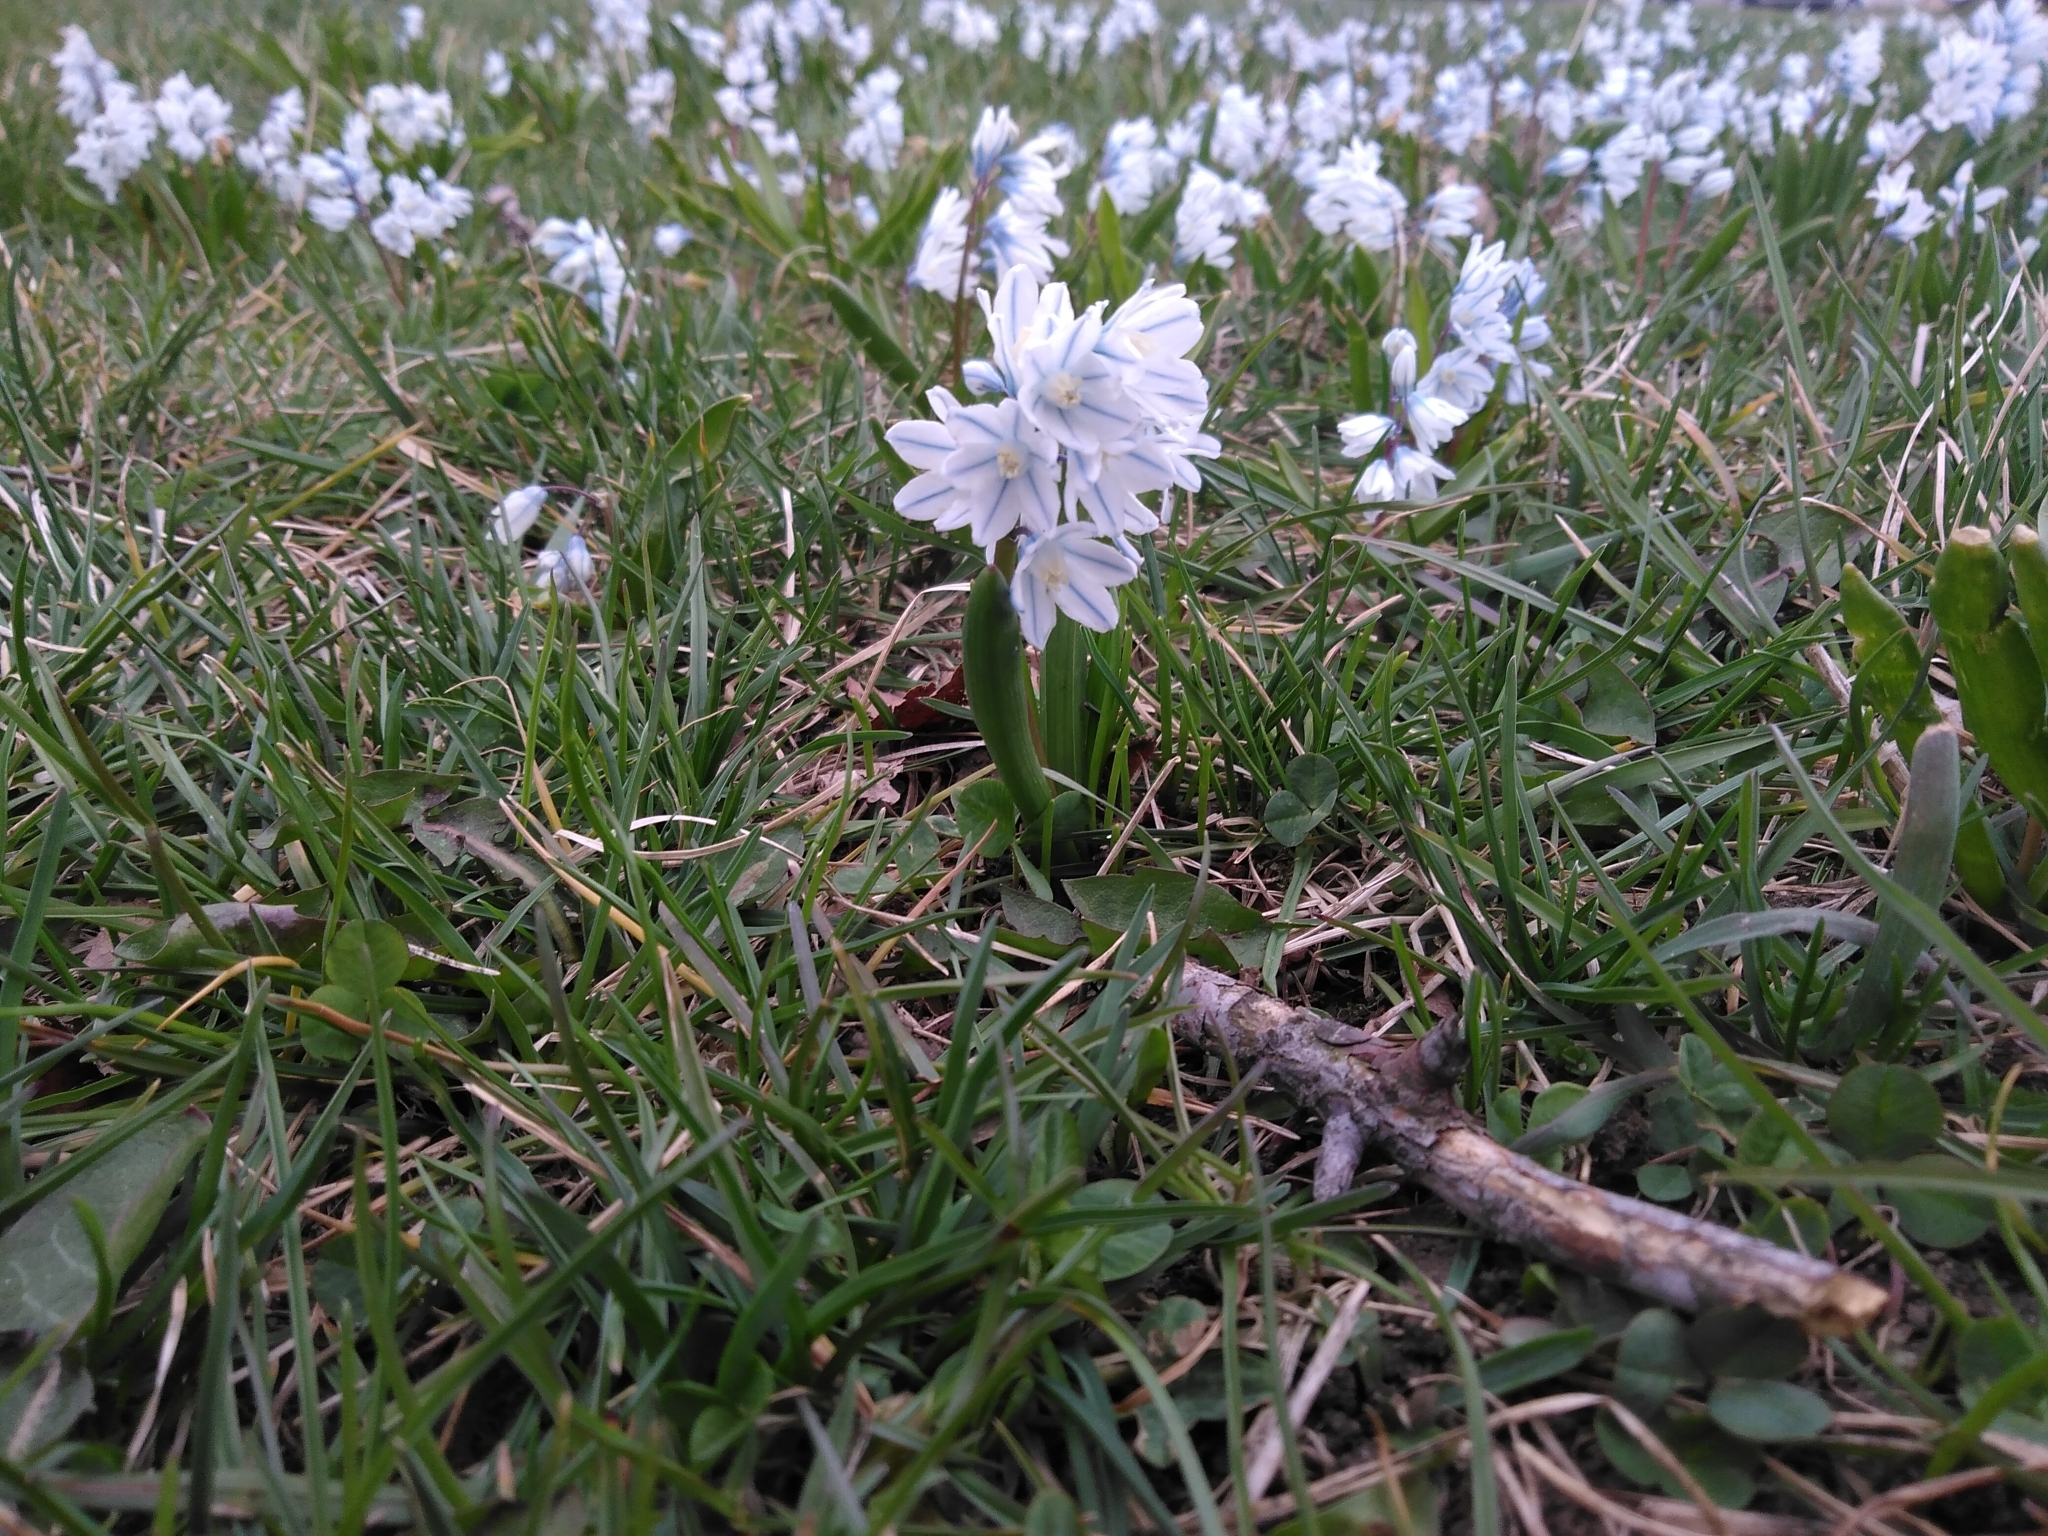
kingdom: Plantae
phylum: Tracheophyta
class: Liliopsida
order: Asparagales
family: Asparagaceae
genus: Puschkinia
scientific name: Puschkinia scilloides
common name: Striped squill
